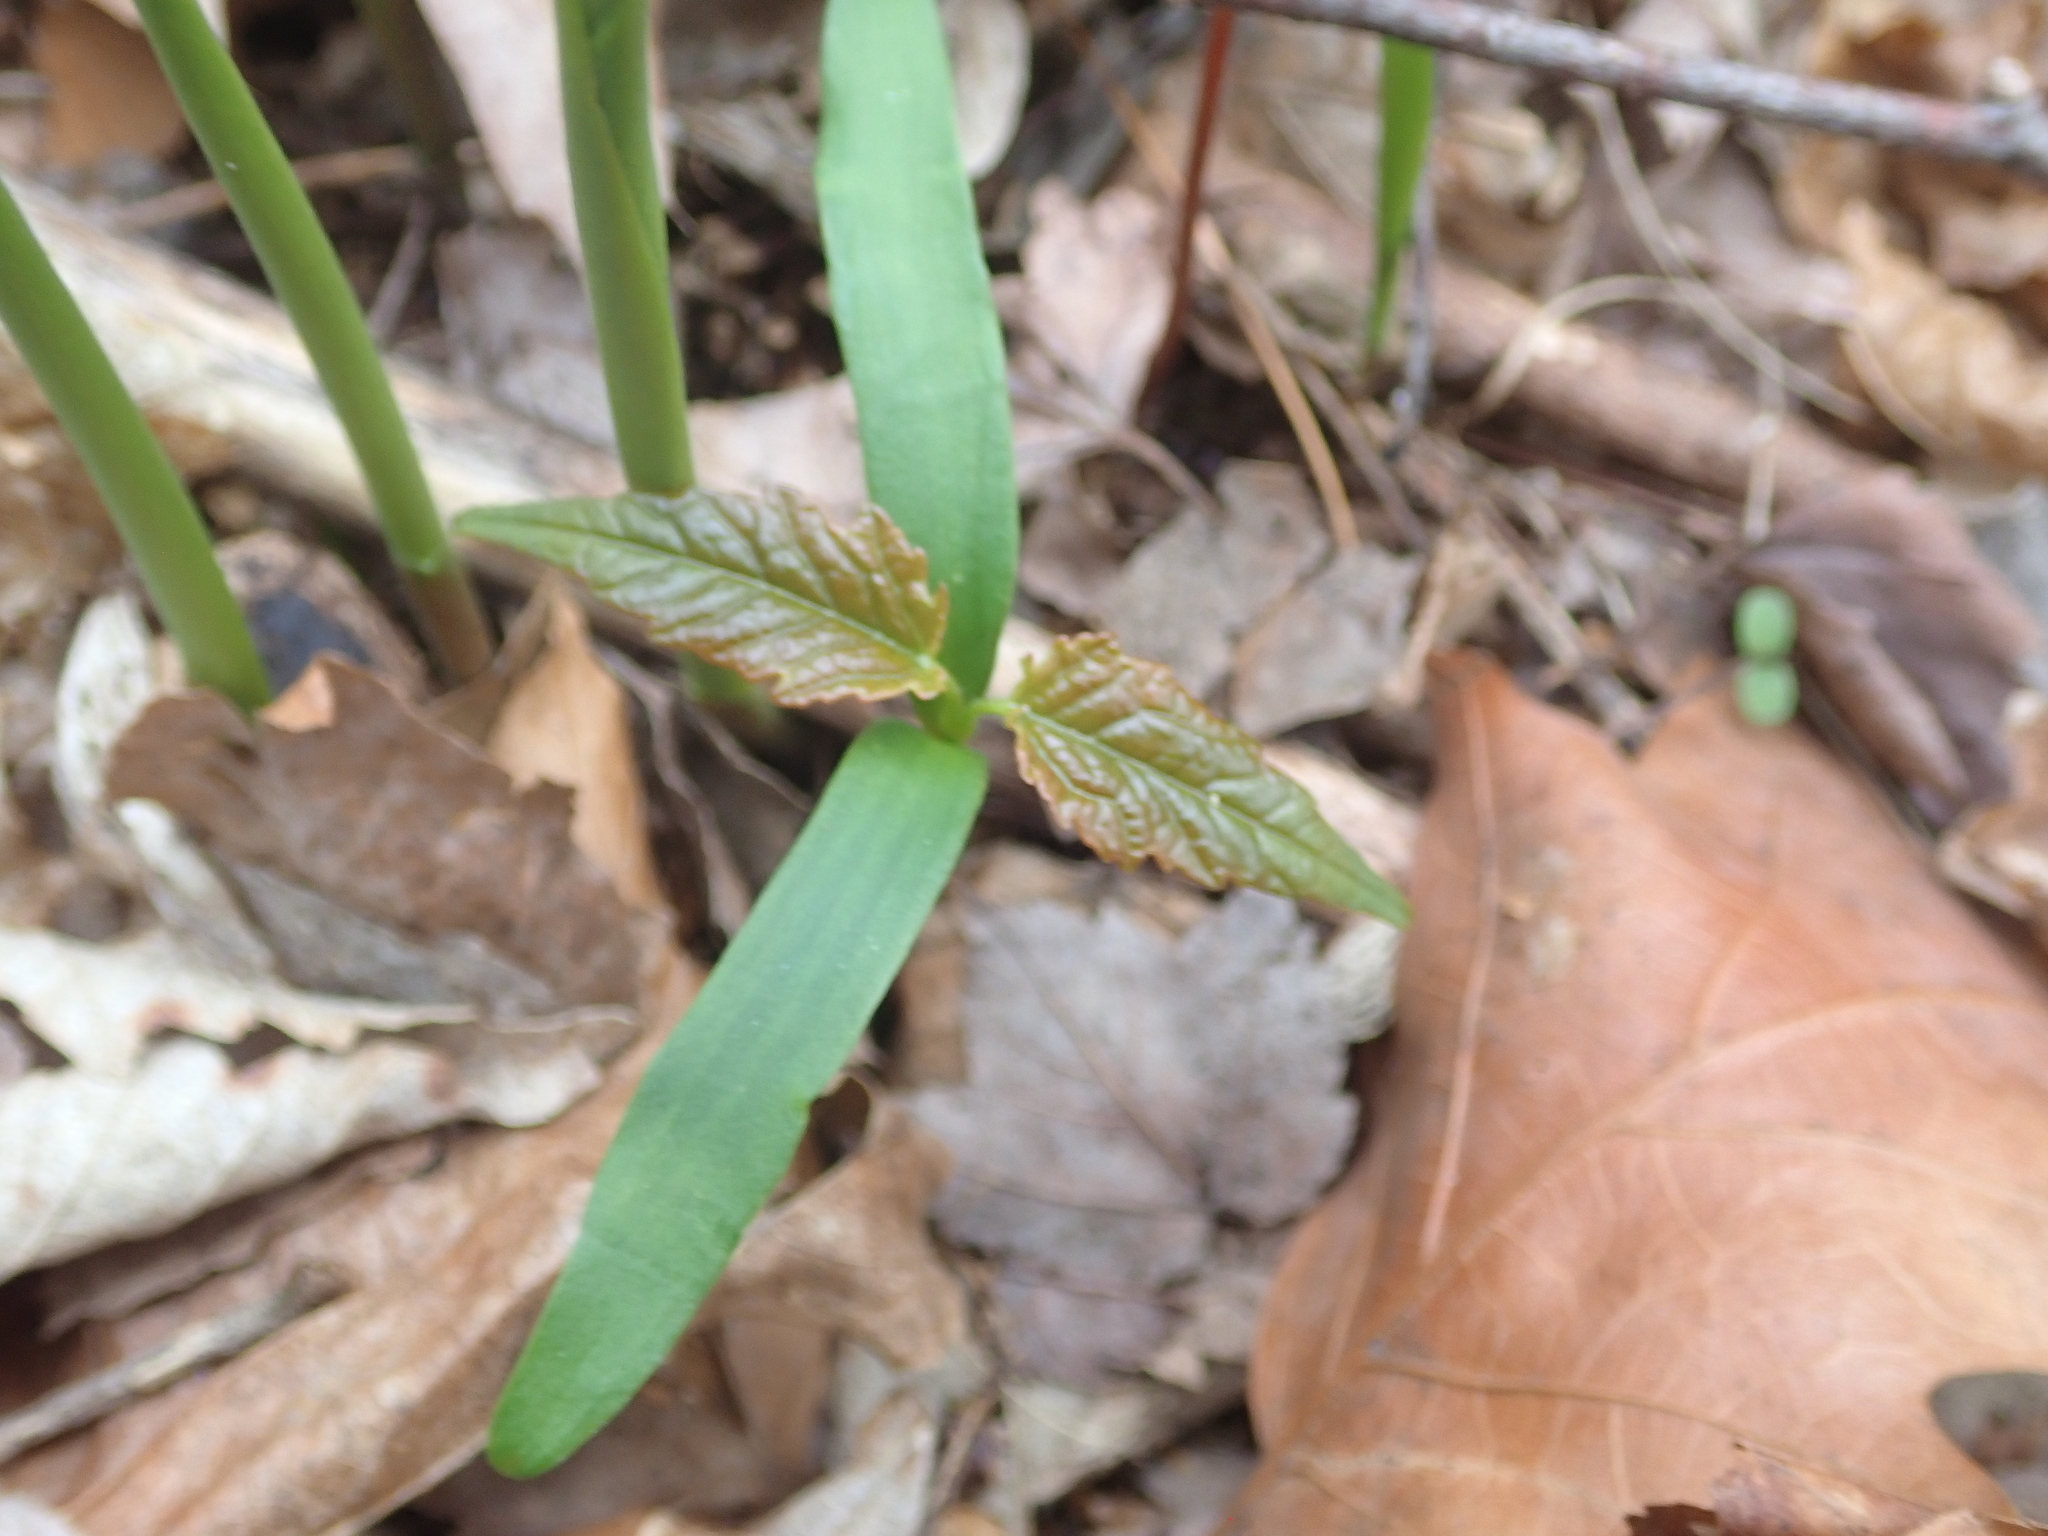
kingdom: Plantae
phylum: Tracheophyta
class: Magnoliopsida
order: Sapindales
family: Sapindaceae
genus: Acer
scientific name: Acer rubrum
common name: Red maple
